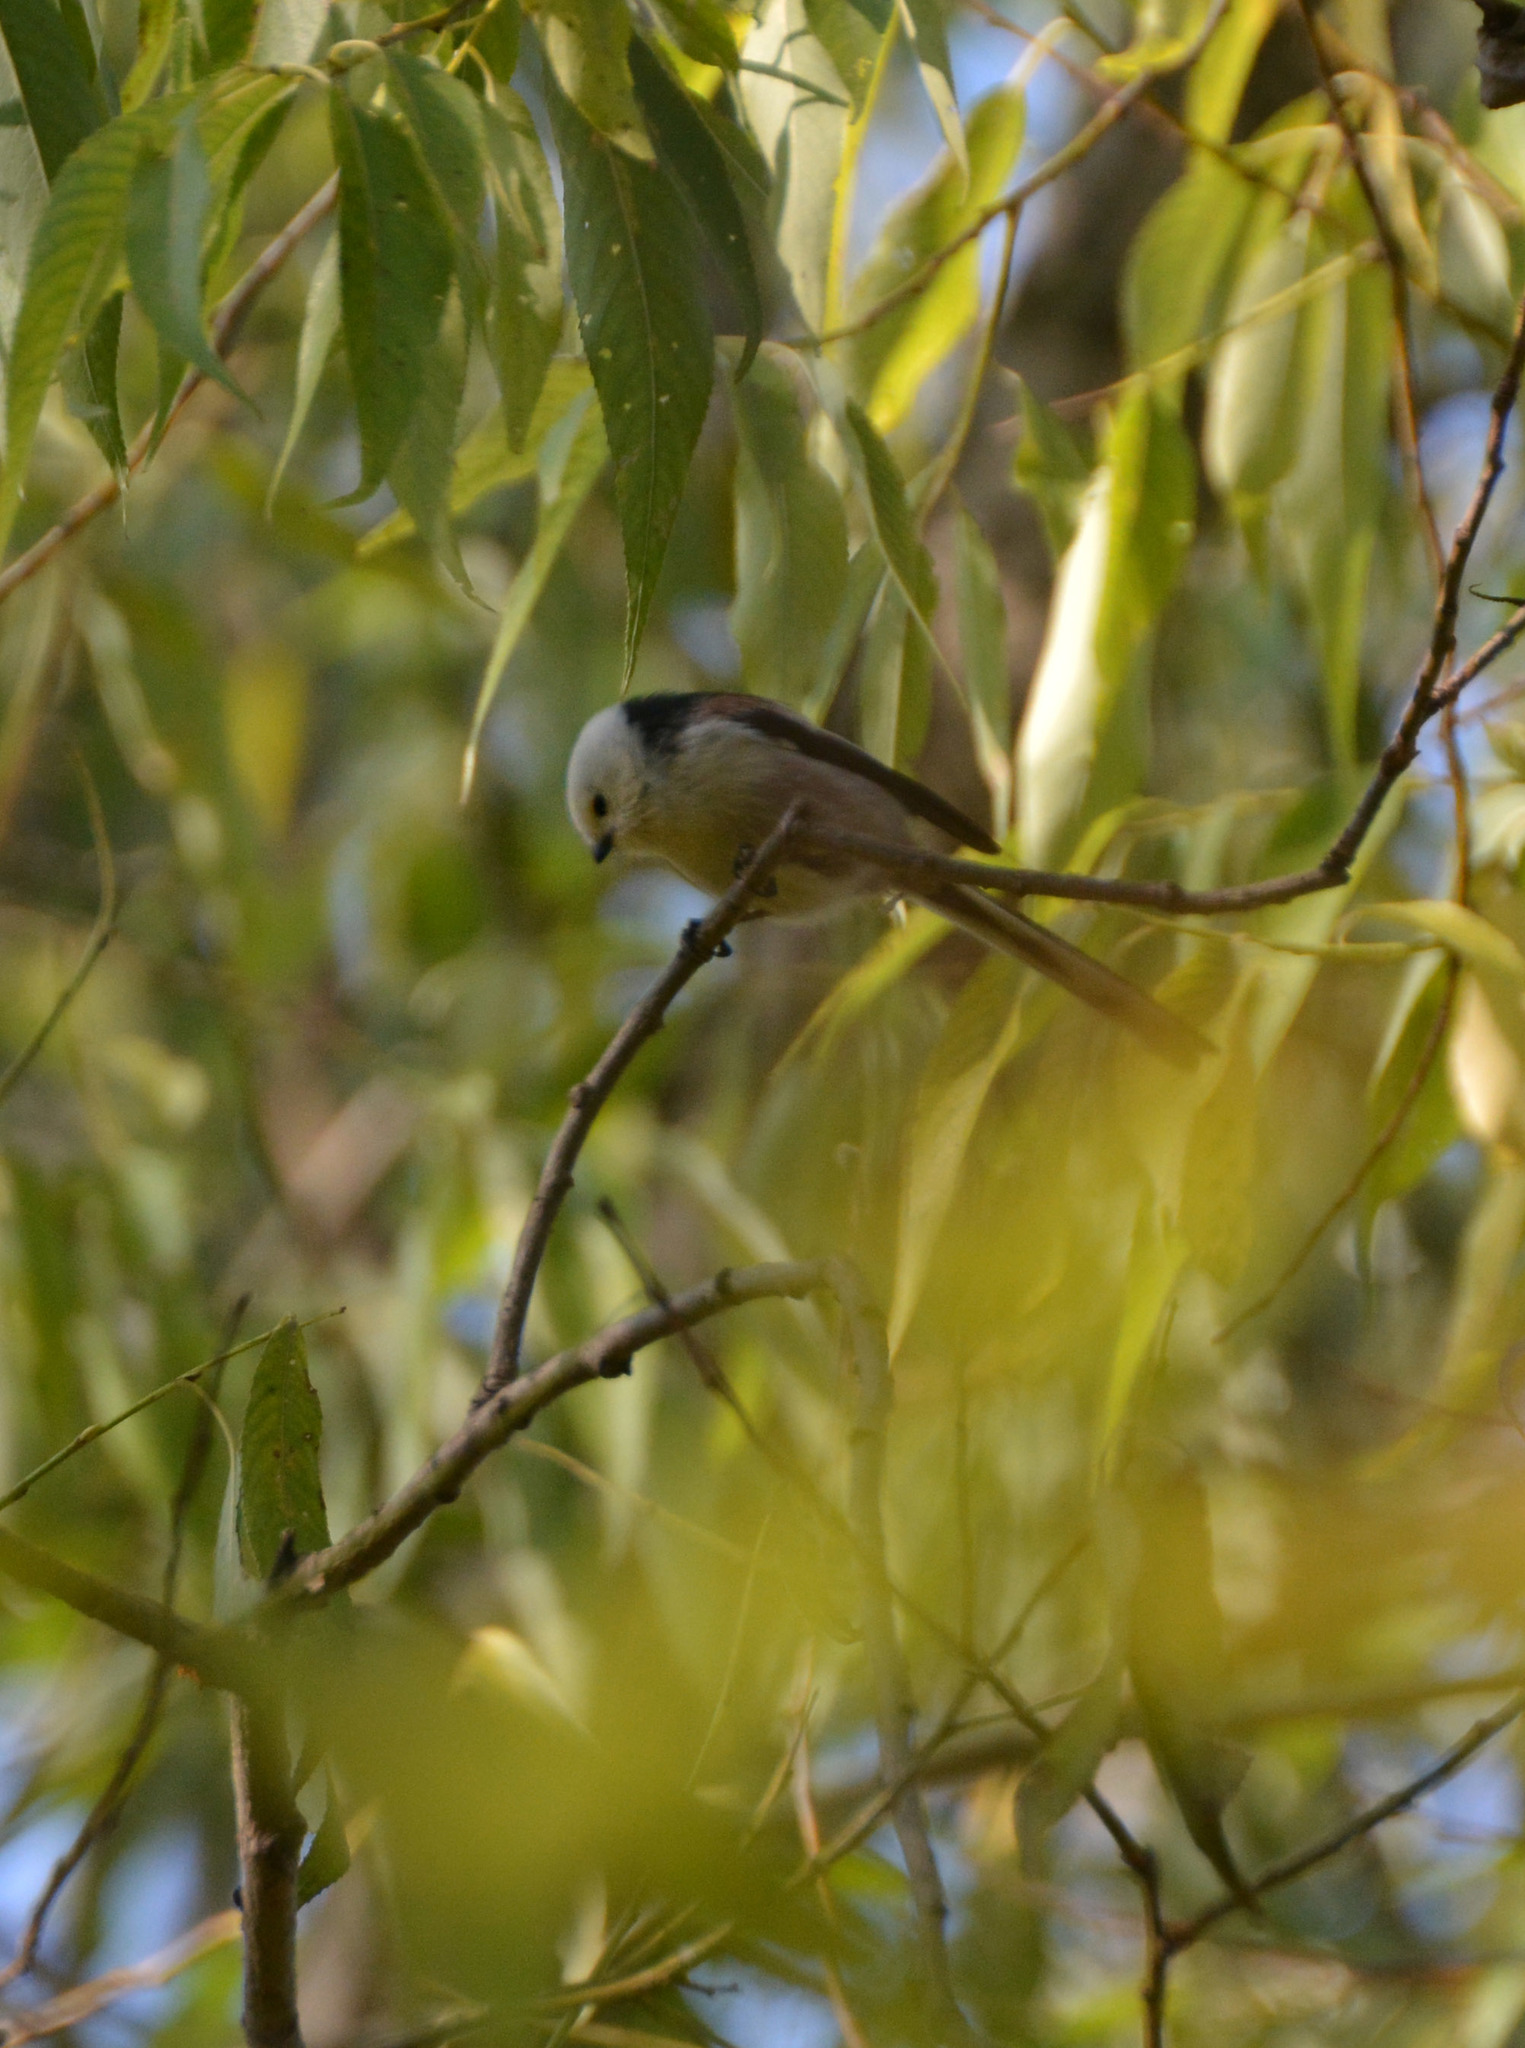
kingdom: Animalia
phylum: Chordata
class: Aves
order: Passeriformes
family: Aegithalidae
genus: Aegithalos
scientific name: Aegithalos caudatus
